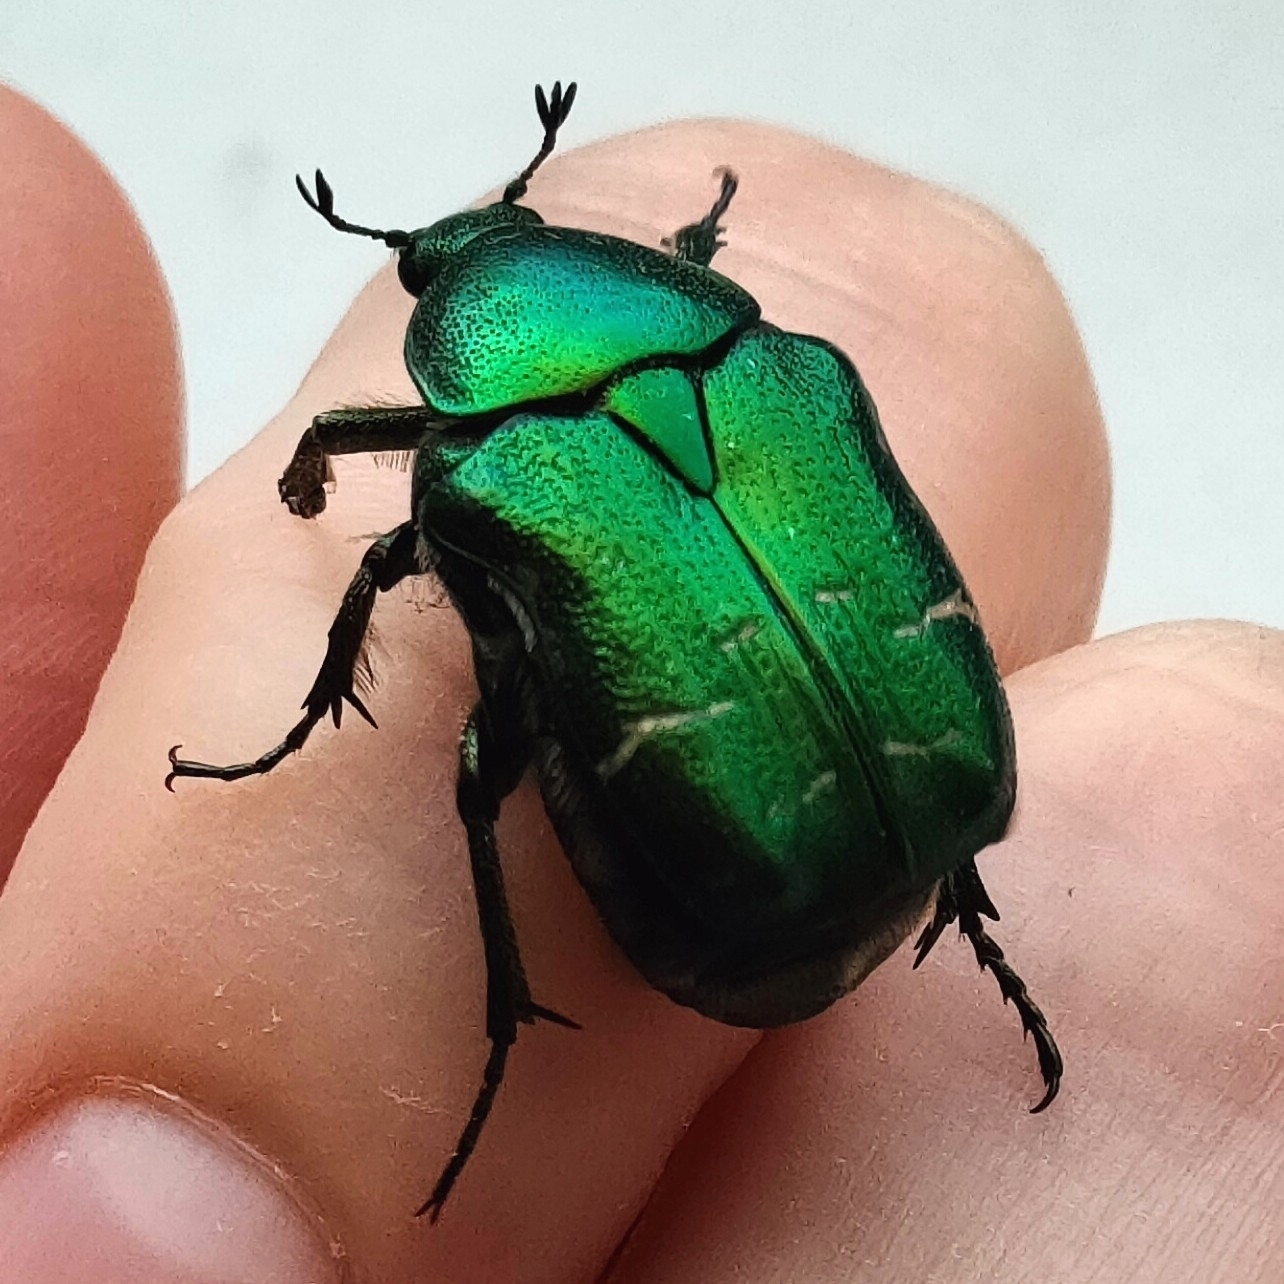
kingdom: Animalia
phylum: Arthropoda
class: Insecta
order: Coleoptera
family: Scarabaeidae
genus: Cetonia
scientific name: Cetonia aurata
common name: Rose chafer
